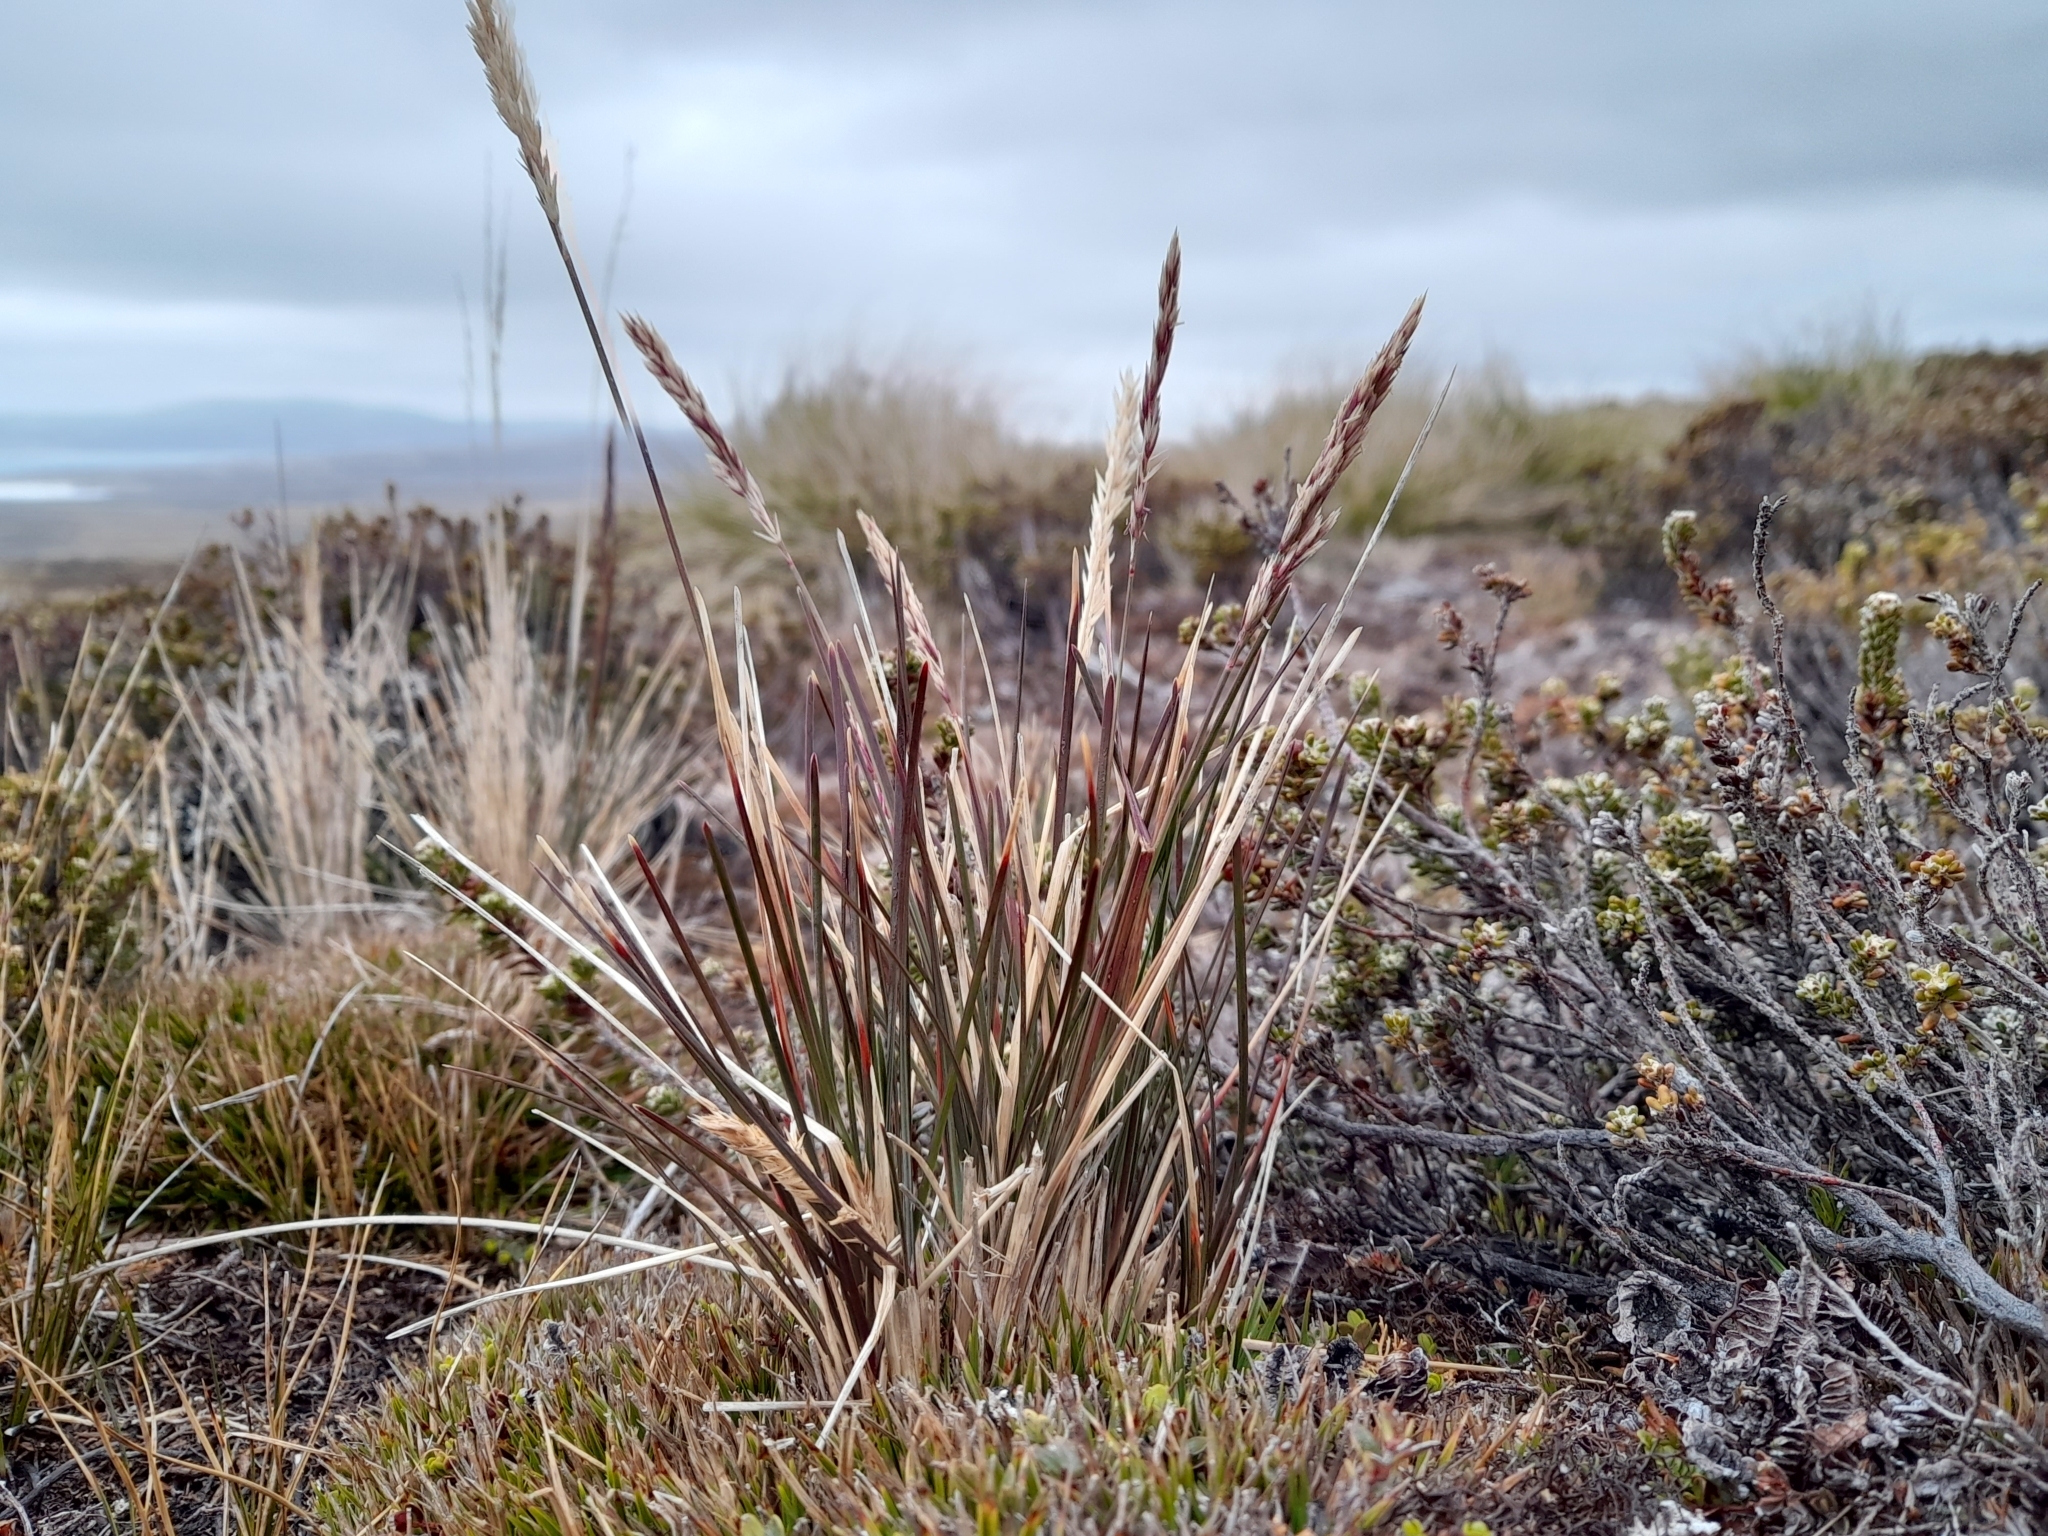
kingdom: Plantae
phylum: Tracheophyta
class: Liliopsida
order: Poales
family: Poaceae
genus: Agrostis
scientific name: Agrostis meyenii
